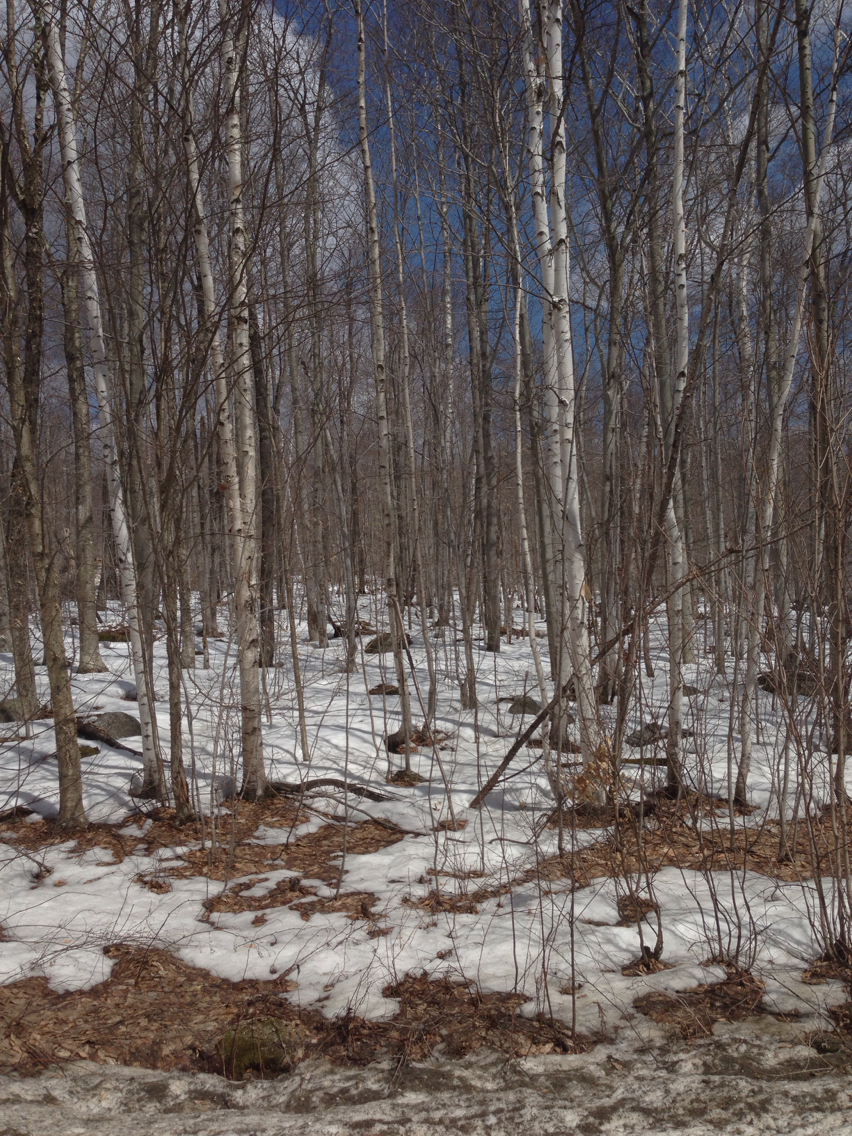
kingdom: Plantae
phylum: Tracheophyta
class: Magnoliopsida
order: Fagales
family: Betulaceae
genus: Betula
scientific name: Betula papyrifera
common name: Paper birch
